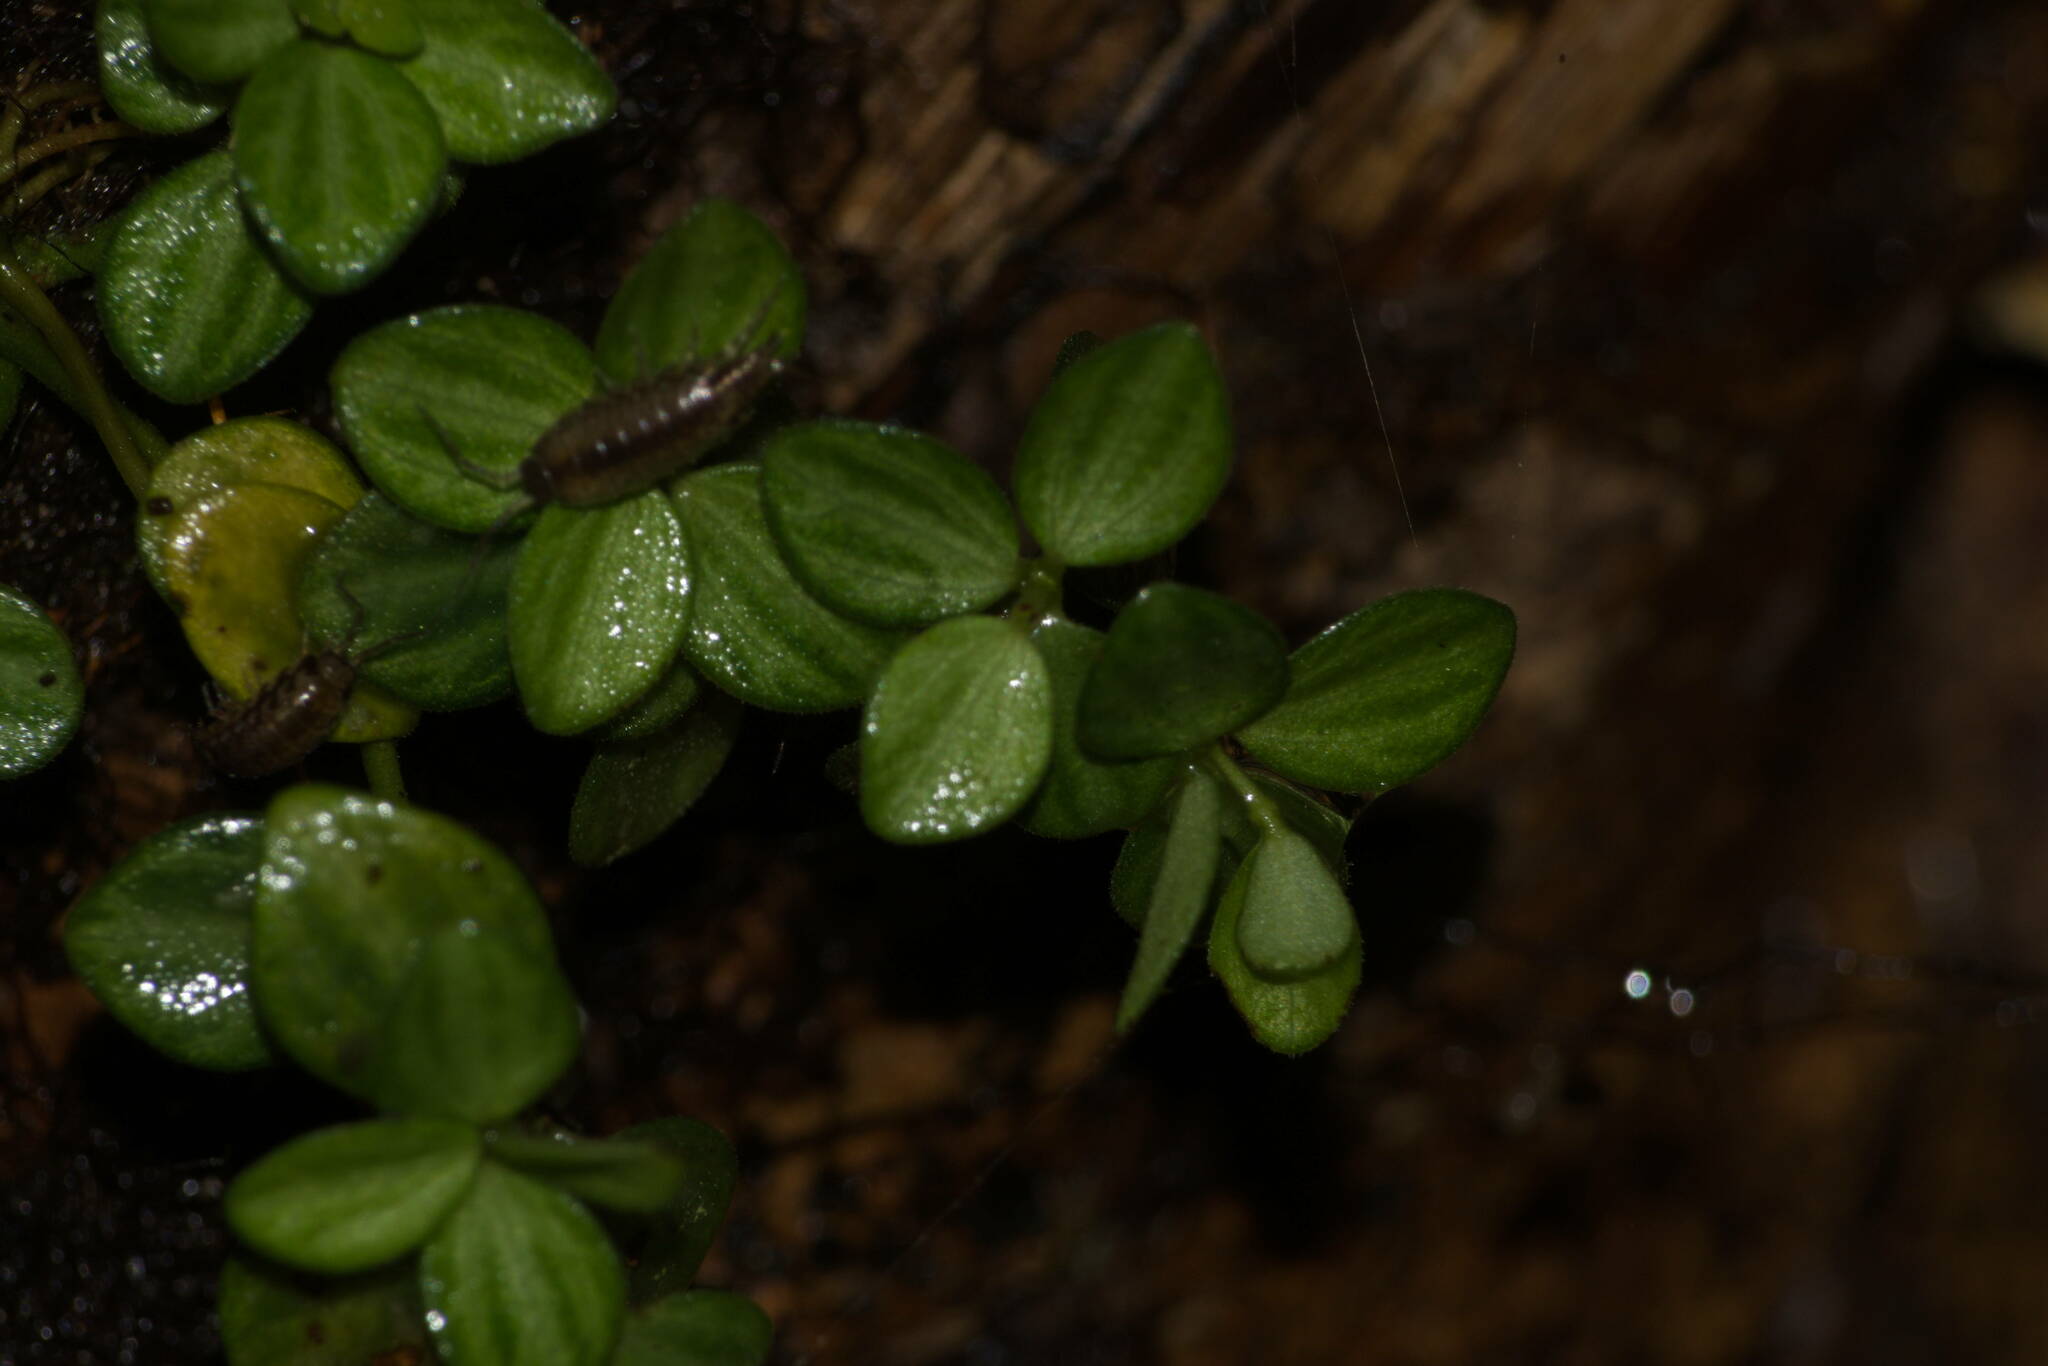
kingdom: Plantae
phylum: Tracheophyta
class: Magnoliopsida
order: Piperales
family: Piperaceae
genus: Peperomia
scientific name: Peperomia tetraphylla
